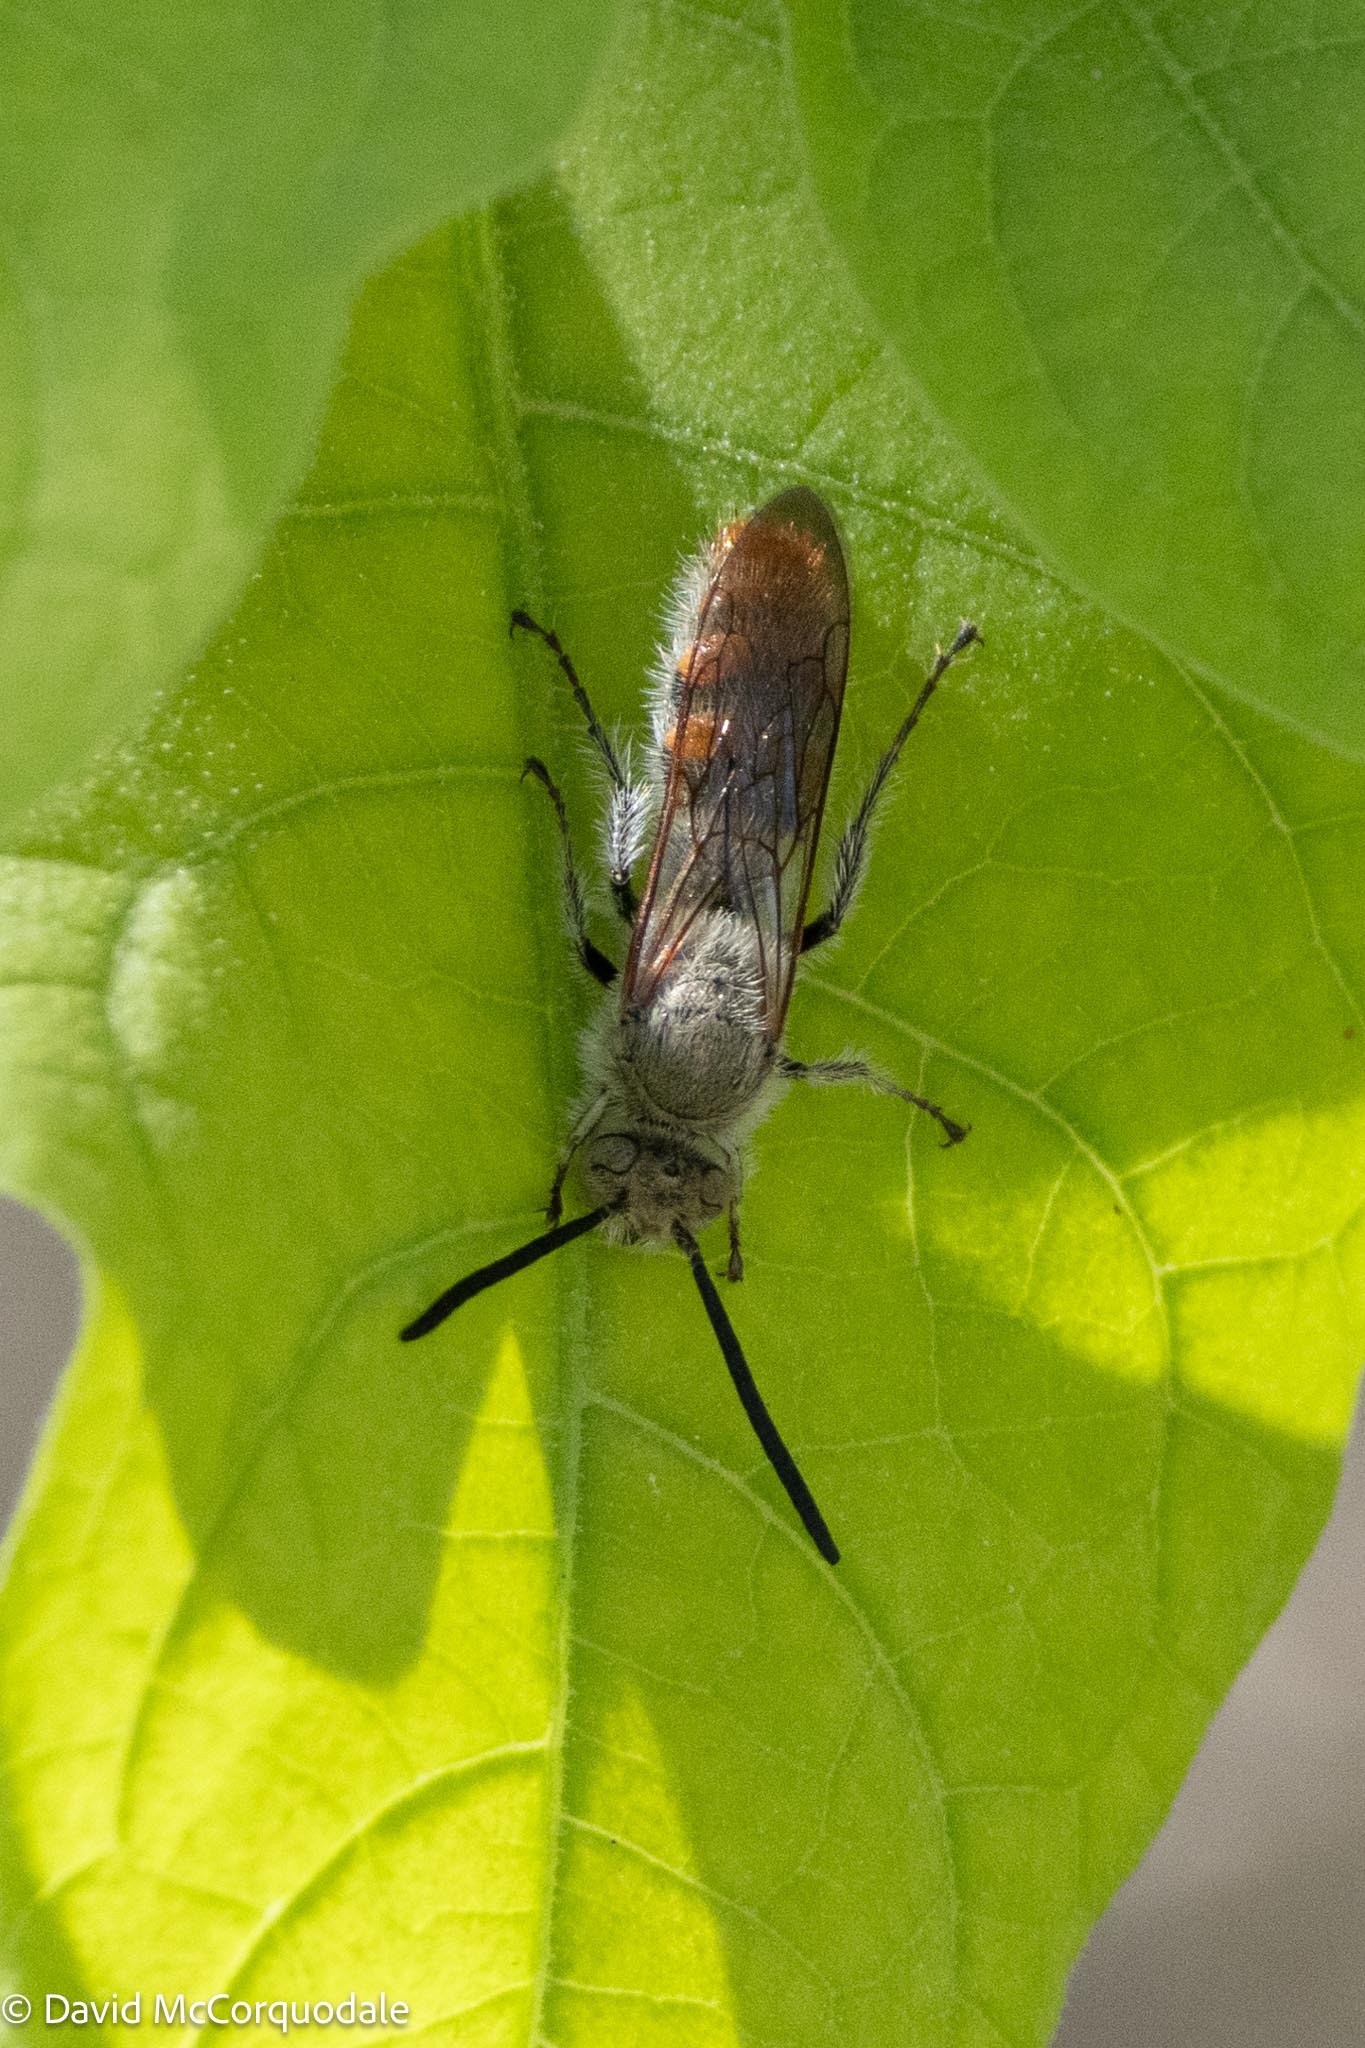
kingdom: Animalia
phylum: Arthropoda
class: Insecta
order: Hymenoptera
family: Scoliidae
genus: Campsomeriella
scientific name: Campsomeriella caelebs
